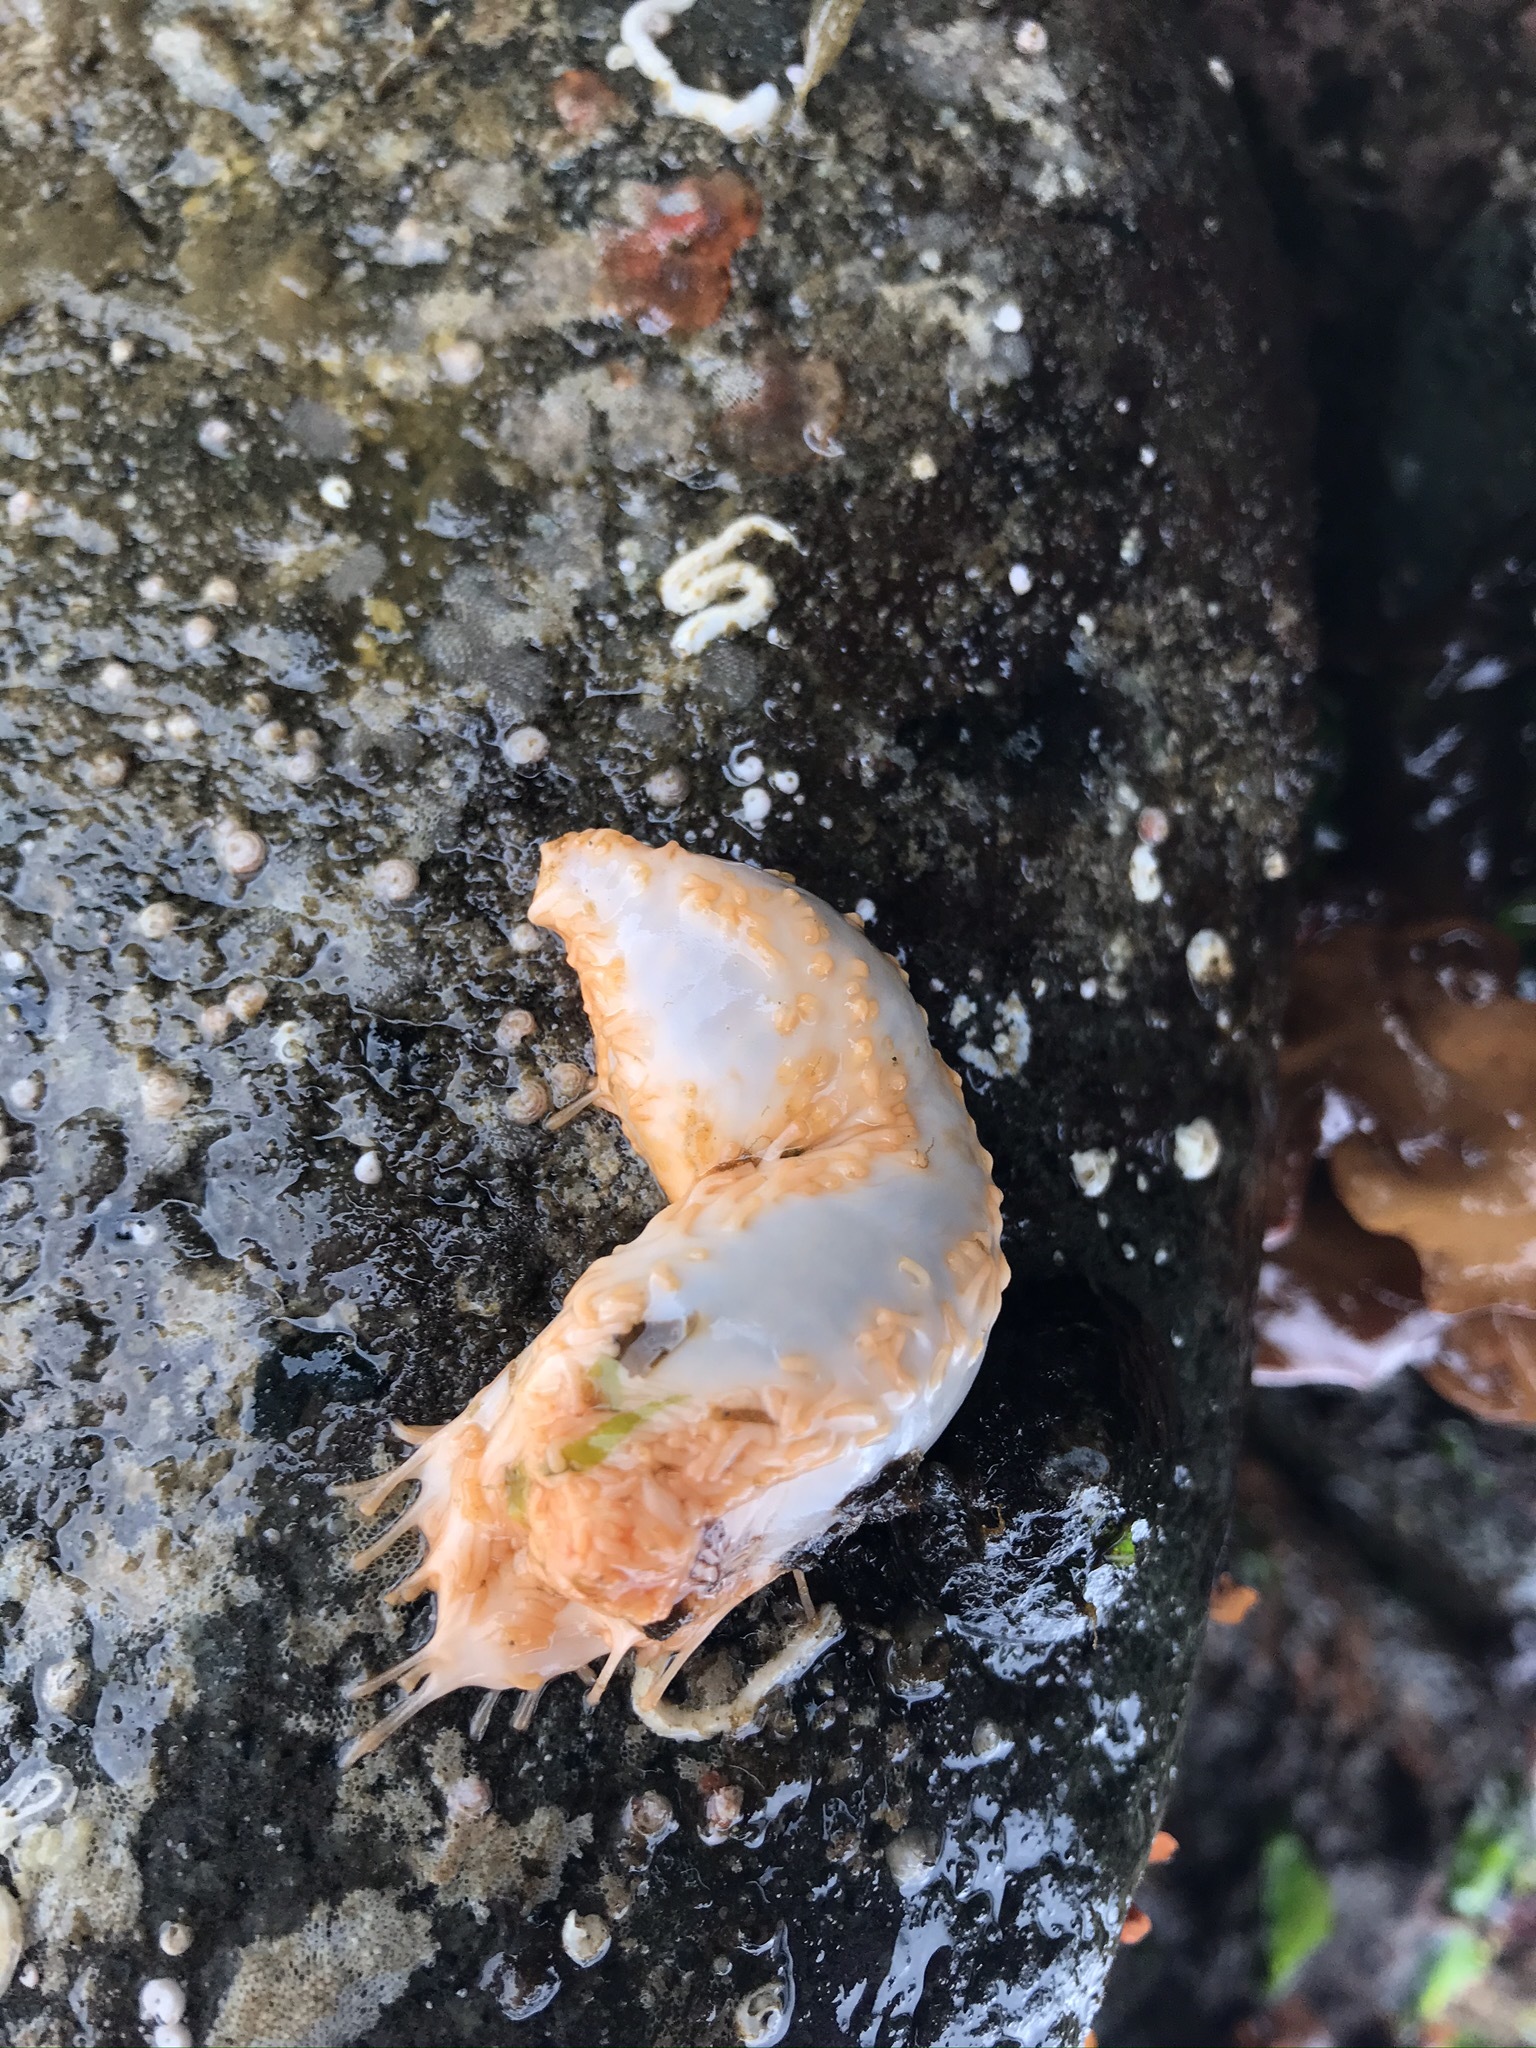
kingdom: Animalia
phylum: Echinodermata
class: Holothuroidea
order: Dendrochirotida
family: Sclerodactylidae
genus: Eupentacta
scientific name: Eupentacta quinquesemita
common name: Pentamerous sea cucumber
